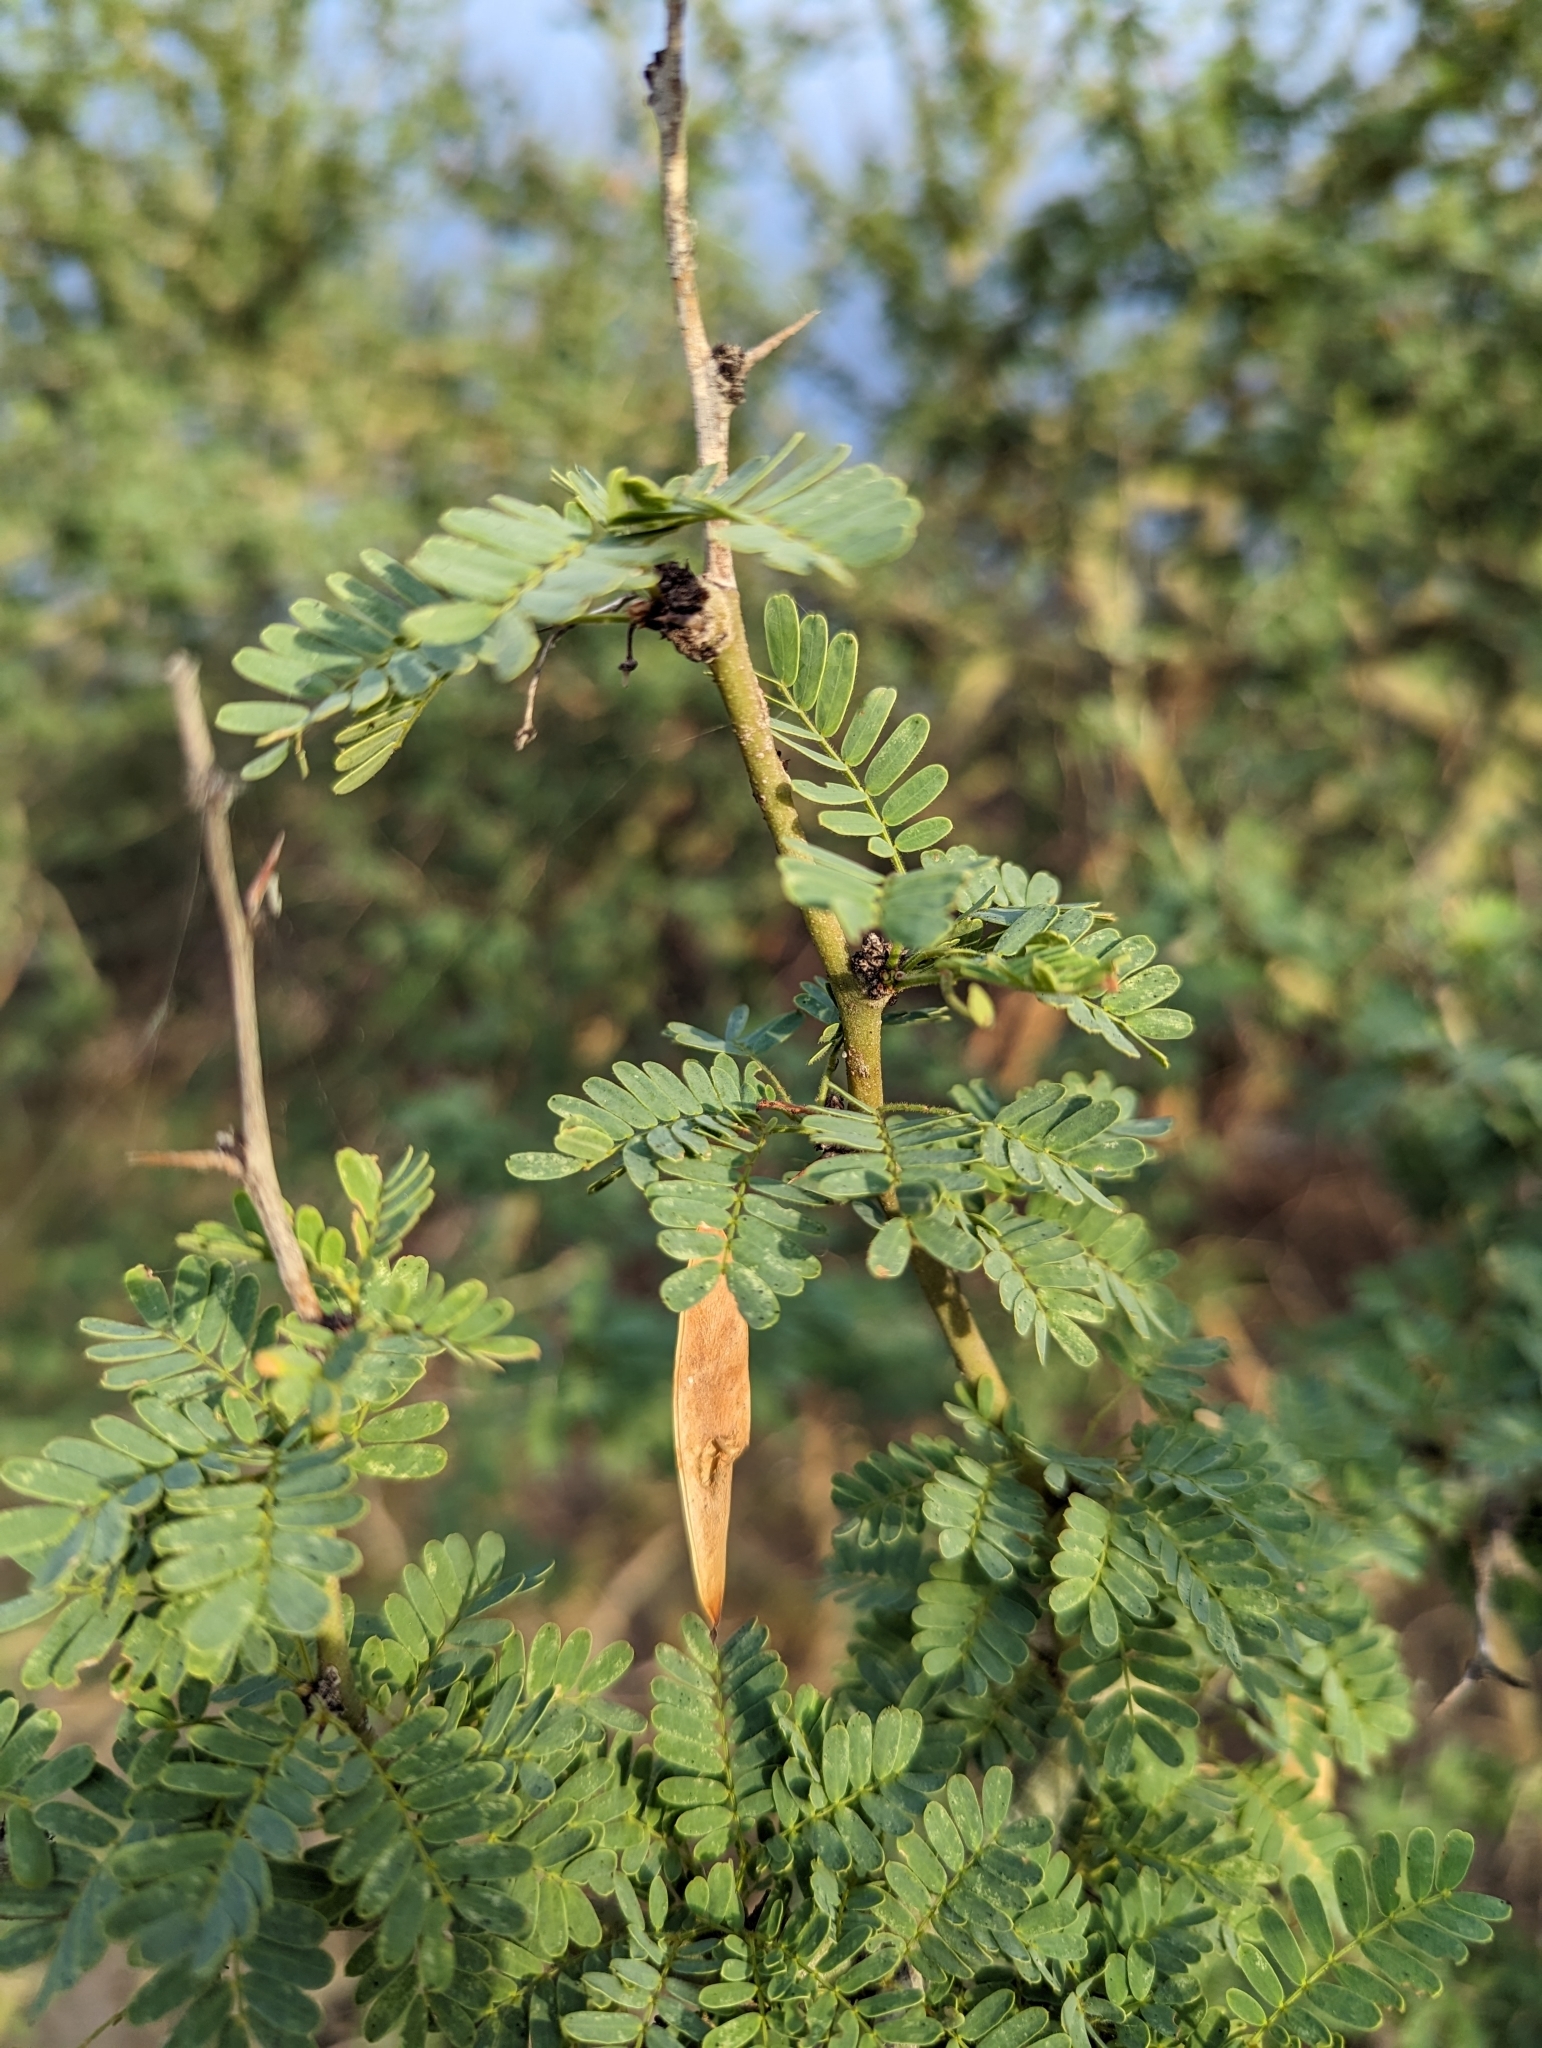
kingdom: Plantae
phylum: Tracheophyta
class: Magnoliopsida
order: Fabales
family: Fabaceae
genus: Parkinsonia
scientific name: Parkinsonia praecox
